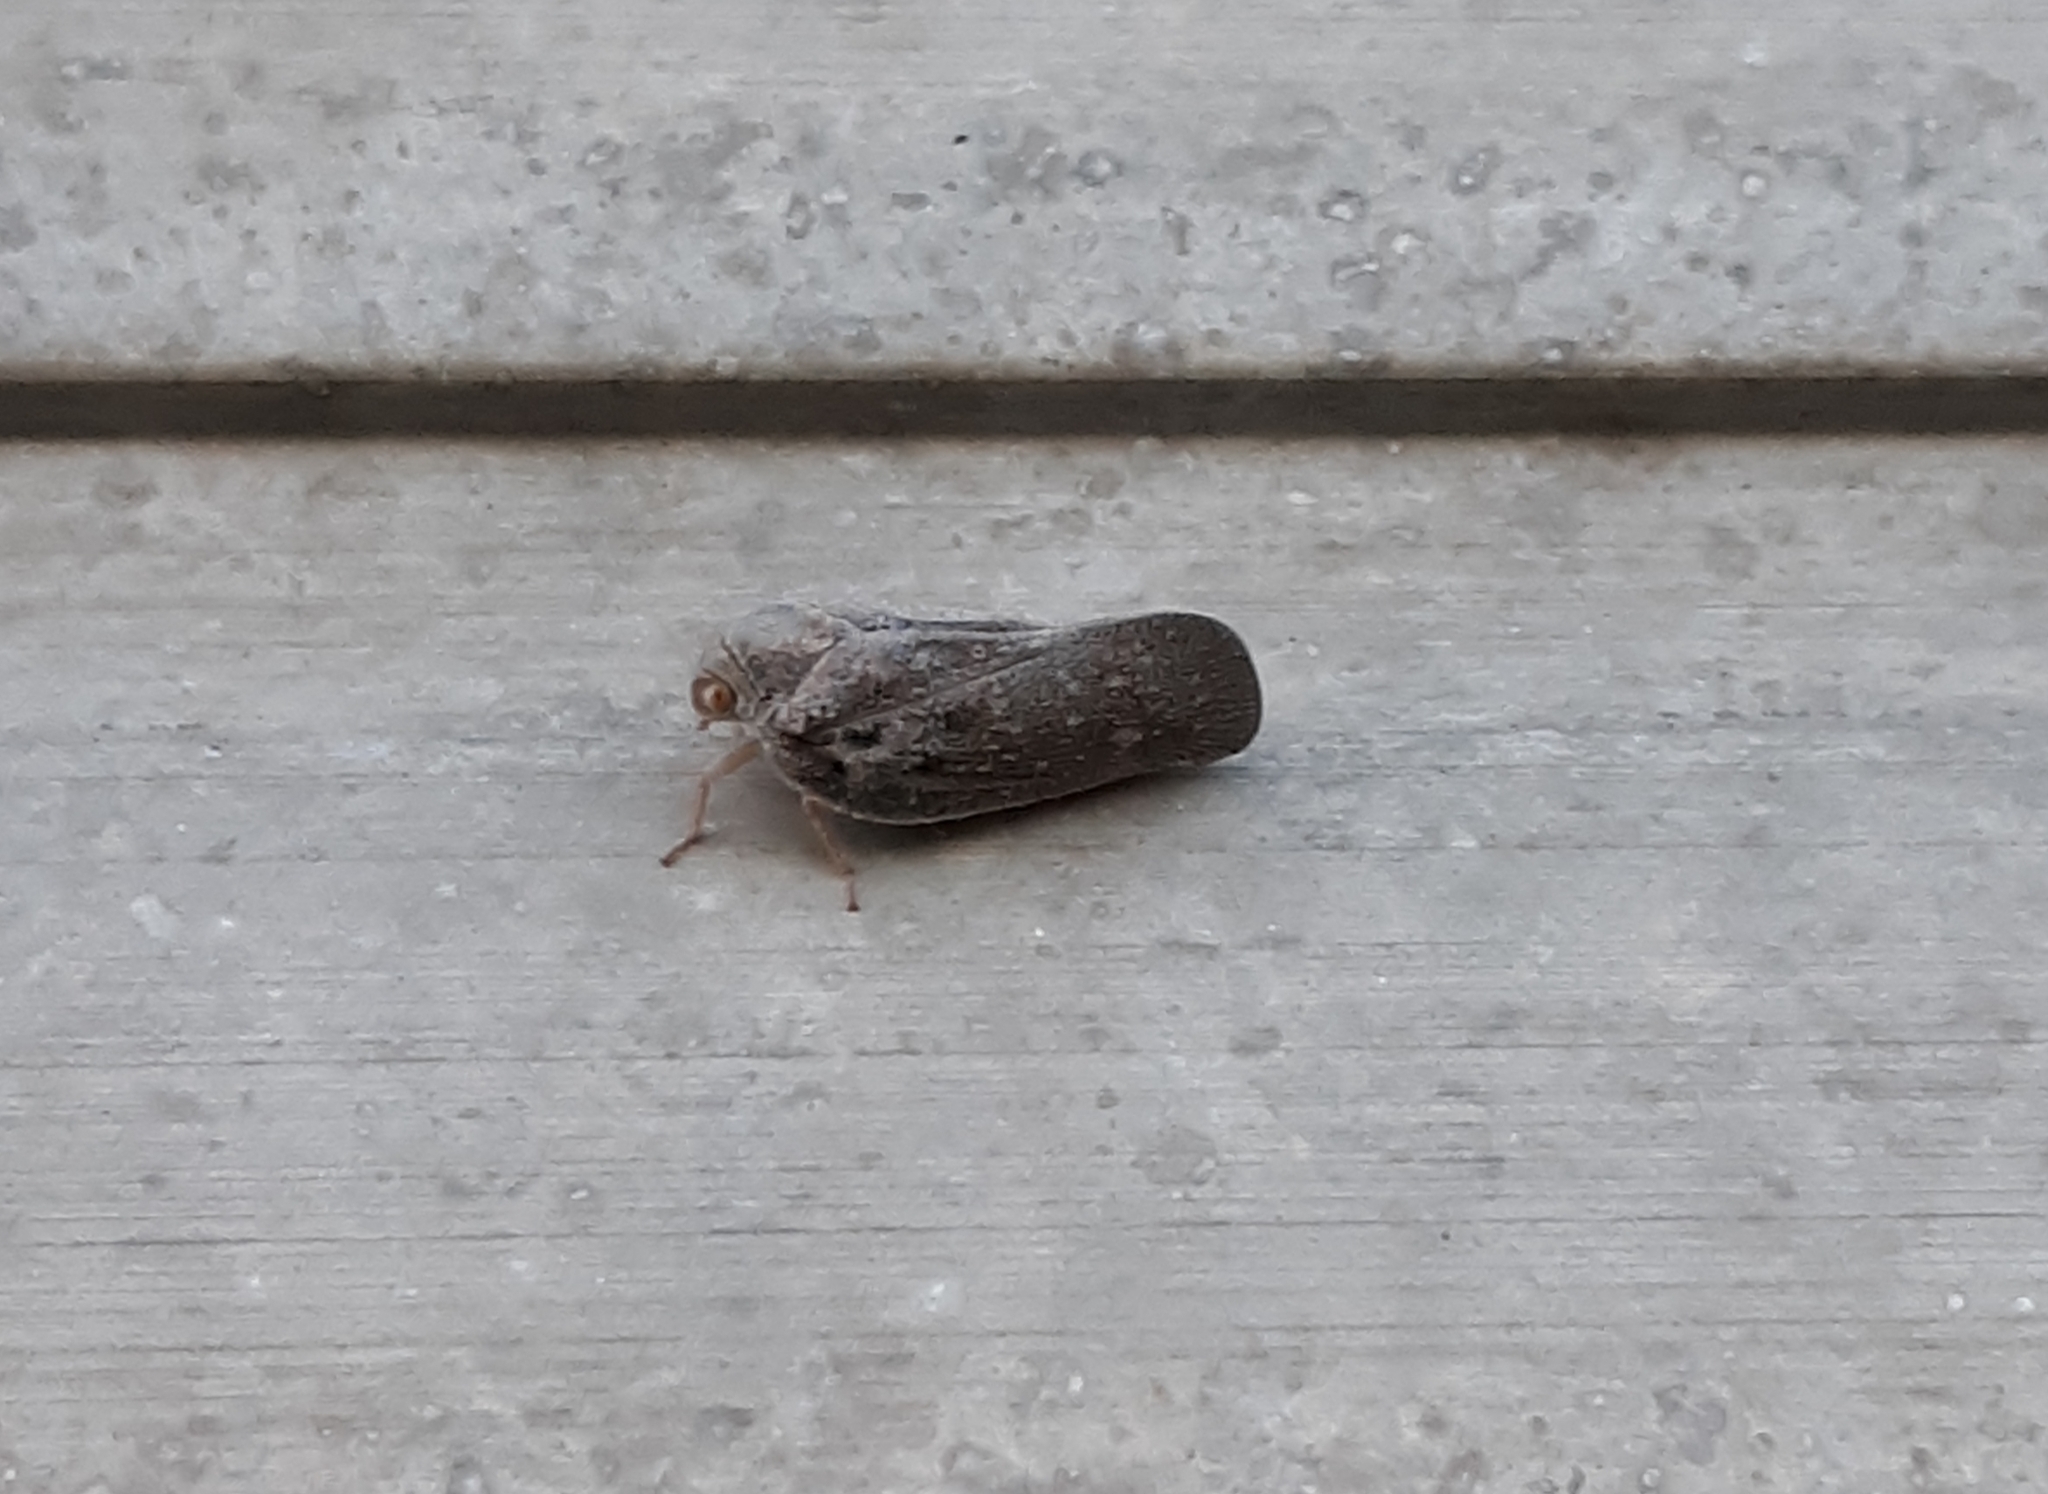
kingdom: Animalia
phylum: Arthropoda
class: Insecta
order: Hemiptera
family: Flatidae
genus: Metcalfa
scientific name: Metcalfa pruinosa
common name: Citrus flatid planthopper
